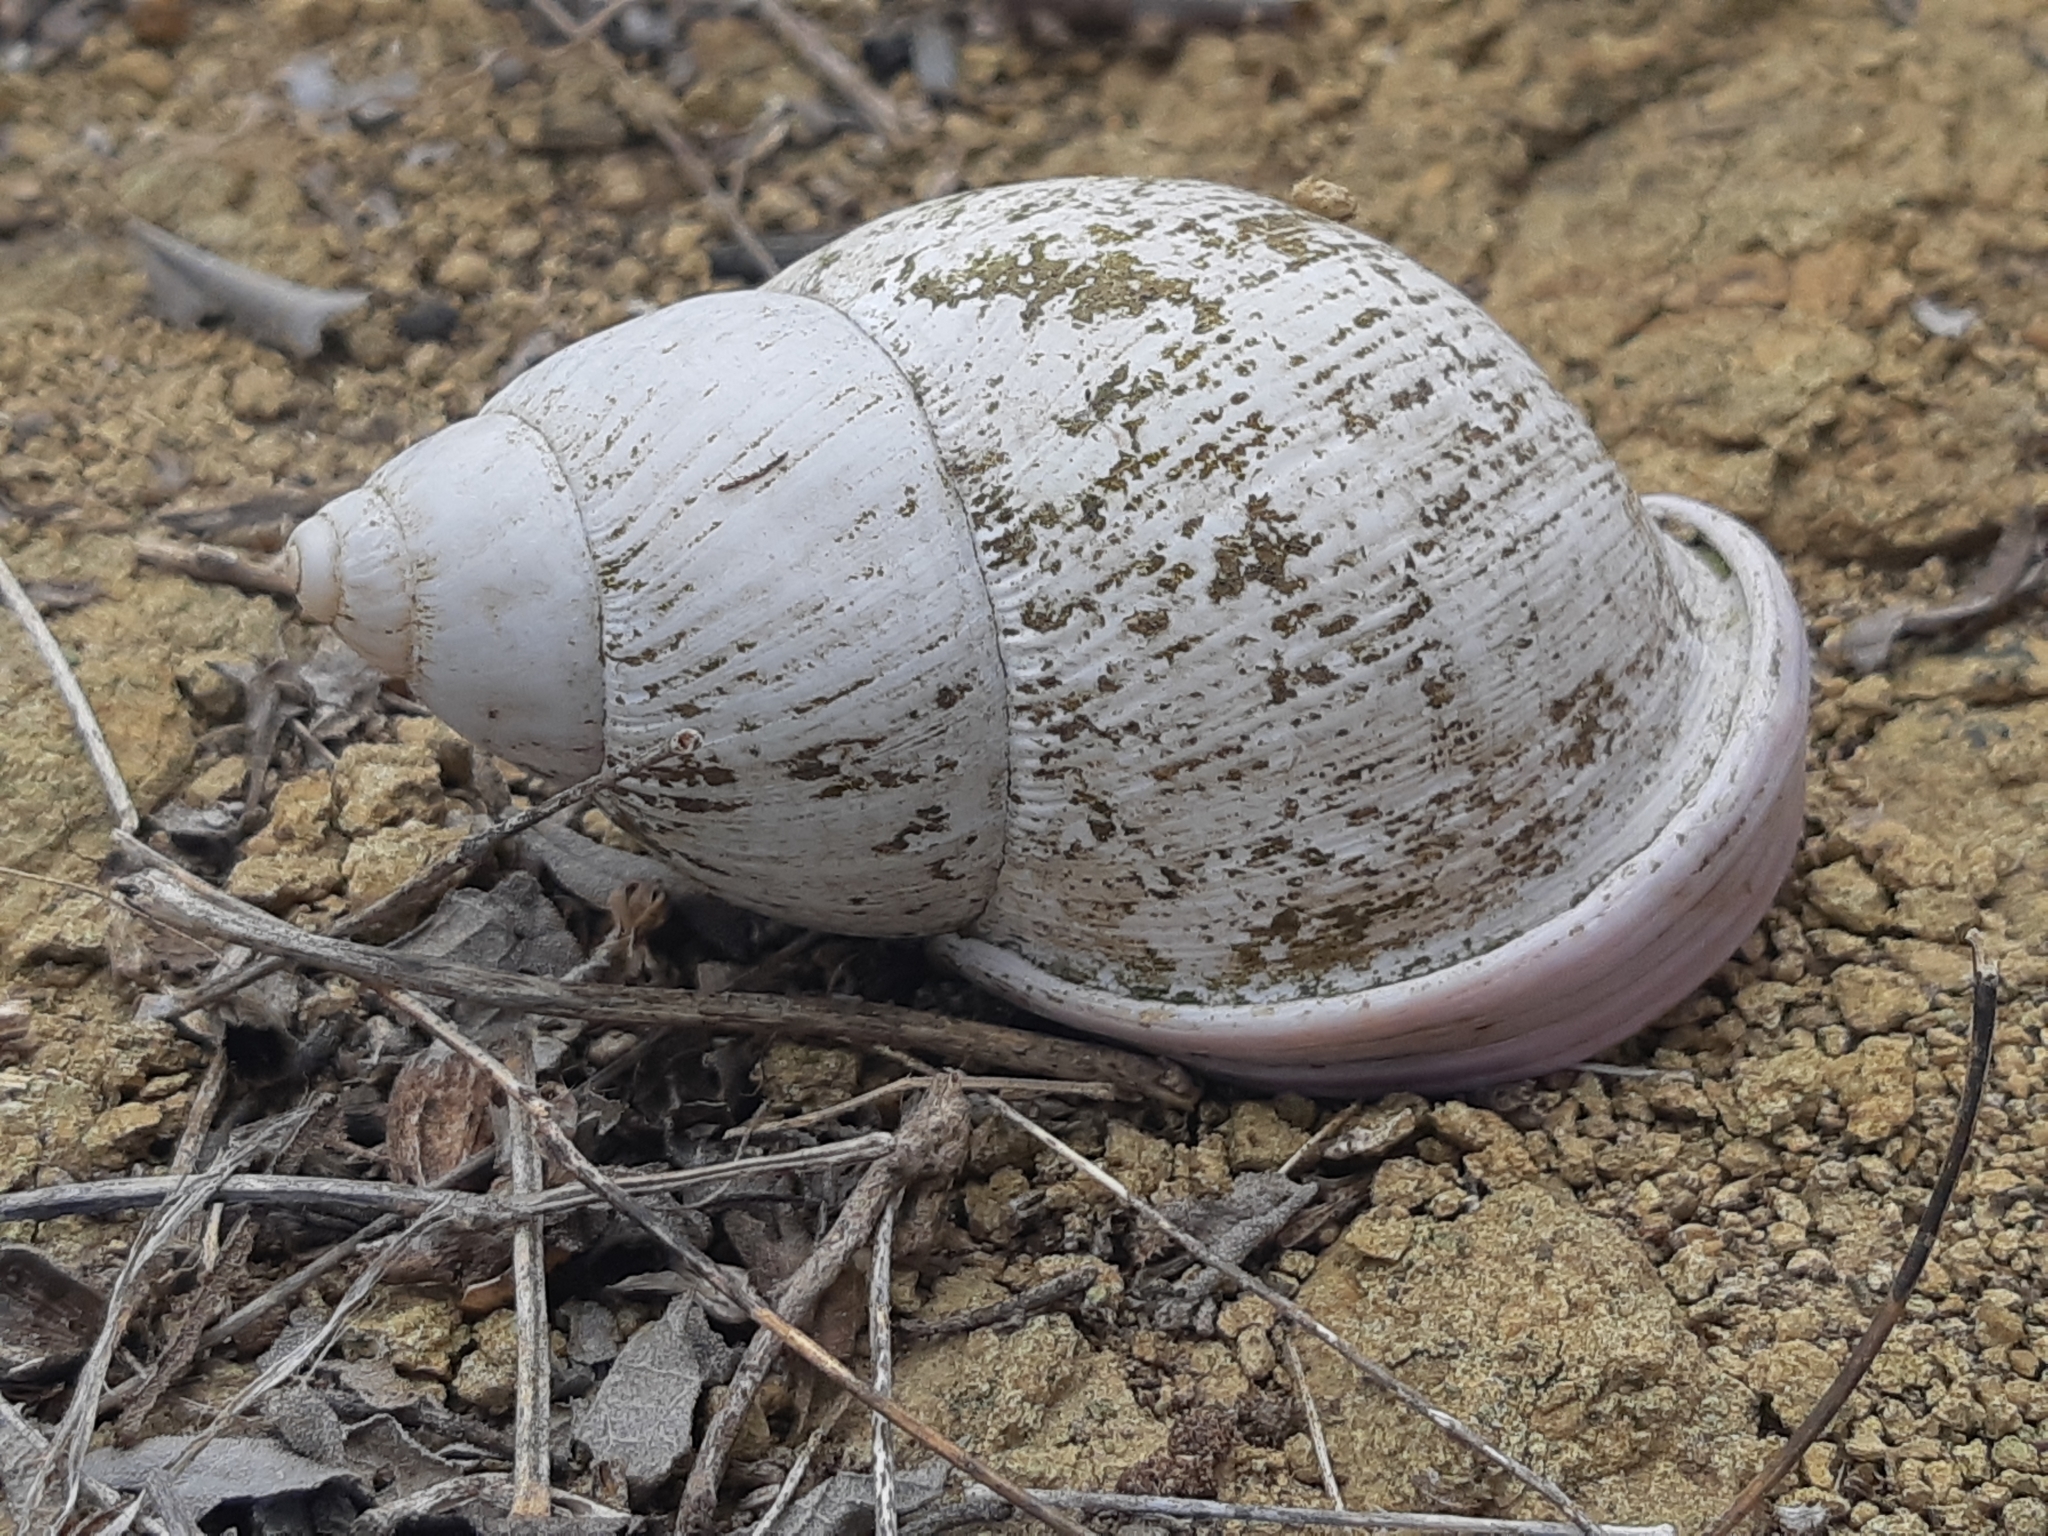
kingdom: Animalia
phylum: Mollusca
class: Gastropoda
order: Stylommatophora
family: Orthalicidae
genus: Porphyrobaphe
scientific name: Porphyrobaphe iostoma
